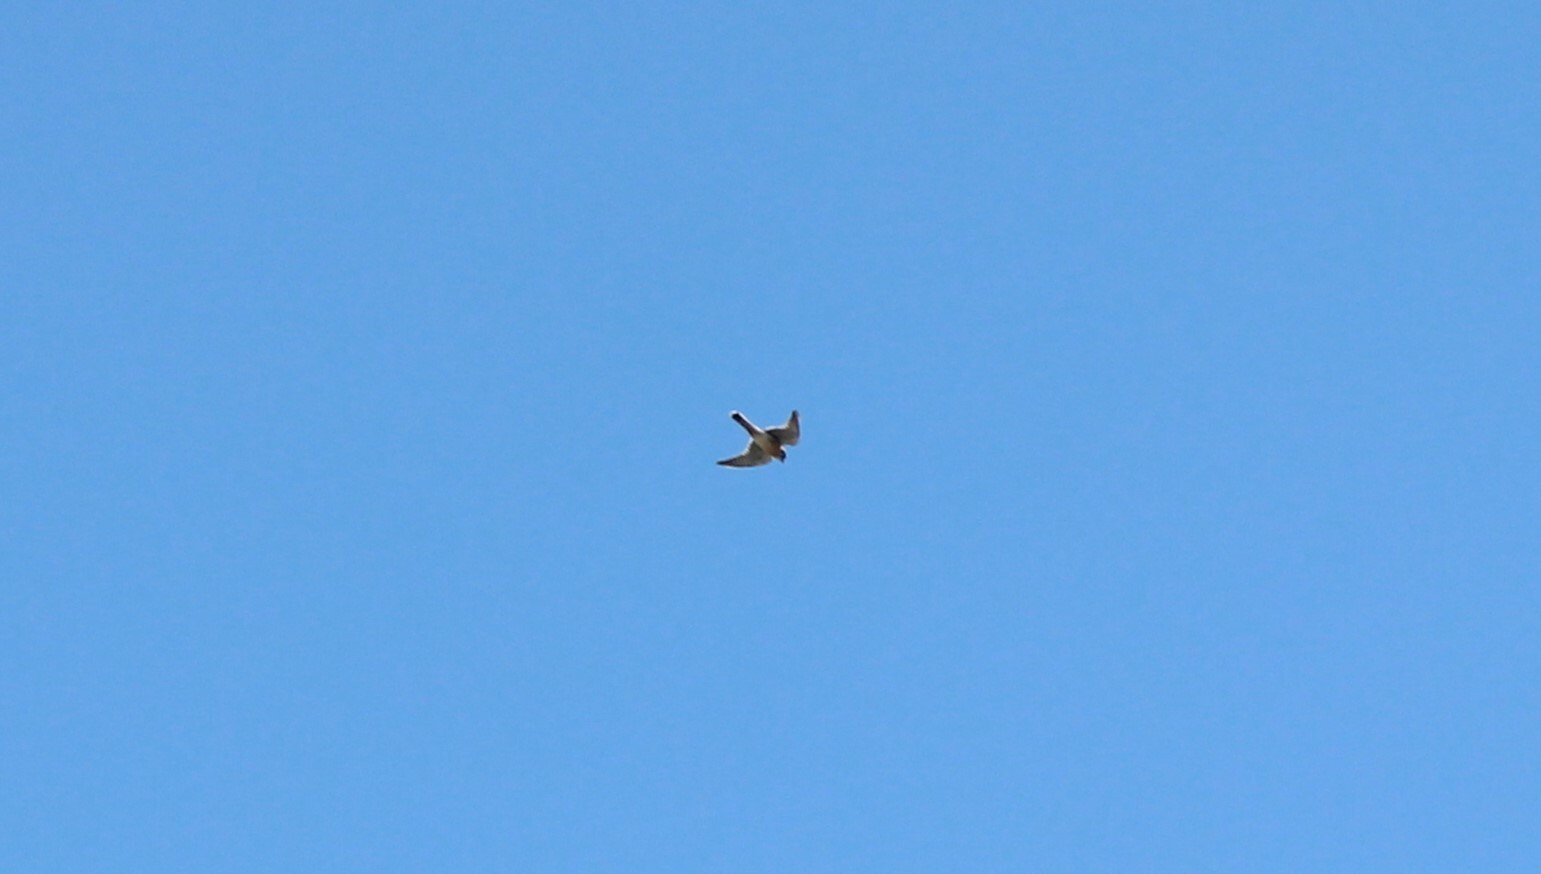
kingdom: Animalia
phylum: Chordata
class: Aves
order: Falconiformes
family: Falconidae
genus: Falco
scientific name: Falco sparverius
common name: American kestrel
